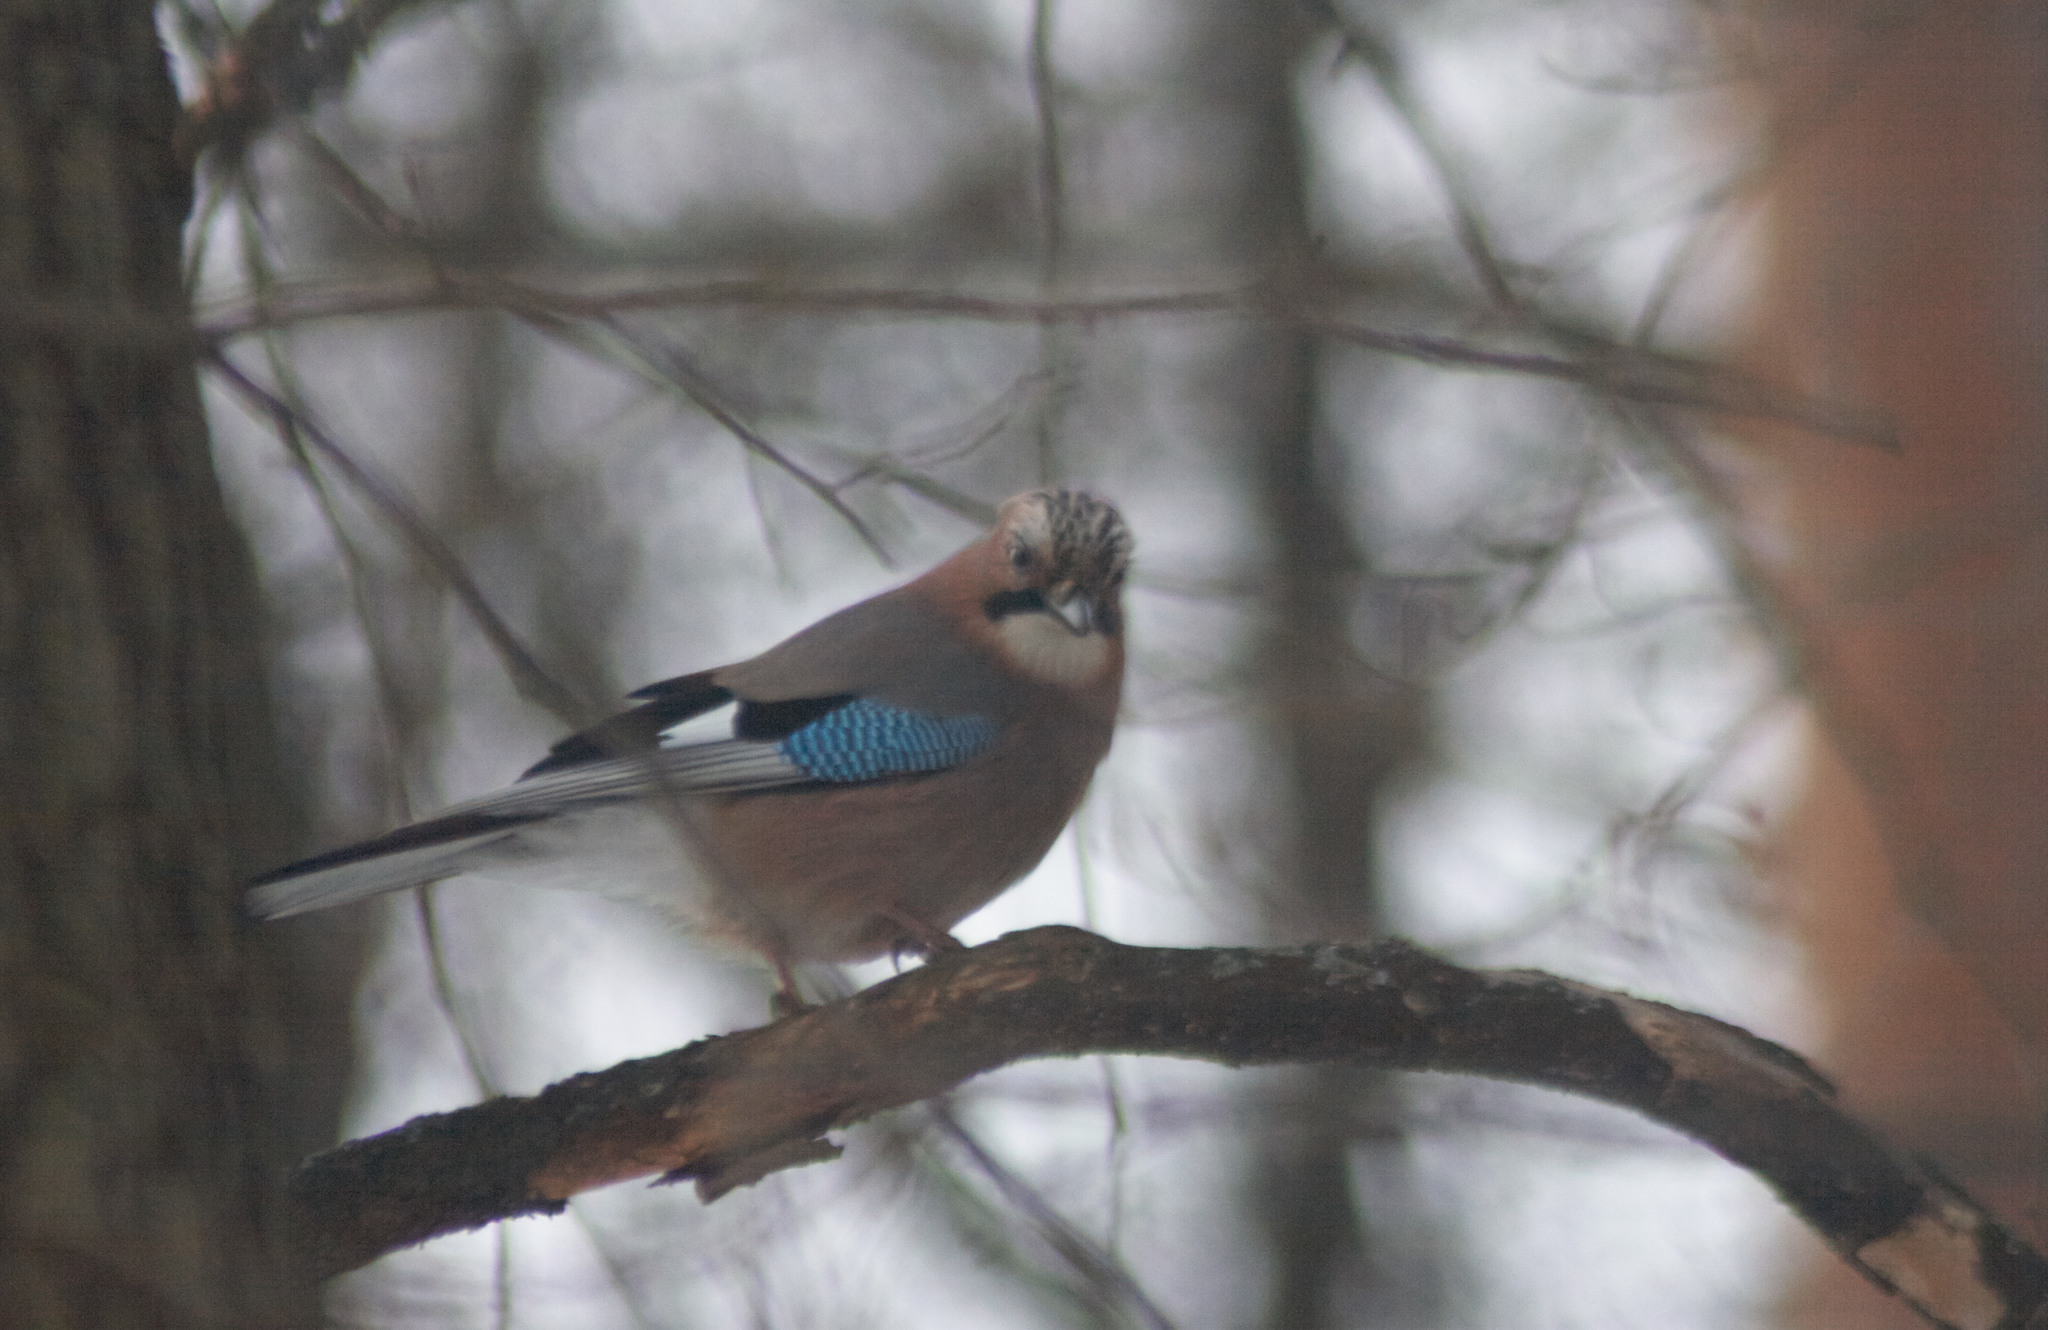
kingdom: Animalia
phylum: Chordata
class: Aves
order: Passeriformes
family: Corvidae
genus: Garrulus
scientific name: Garrulus glandarius
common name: Eurasian jay
